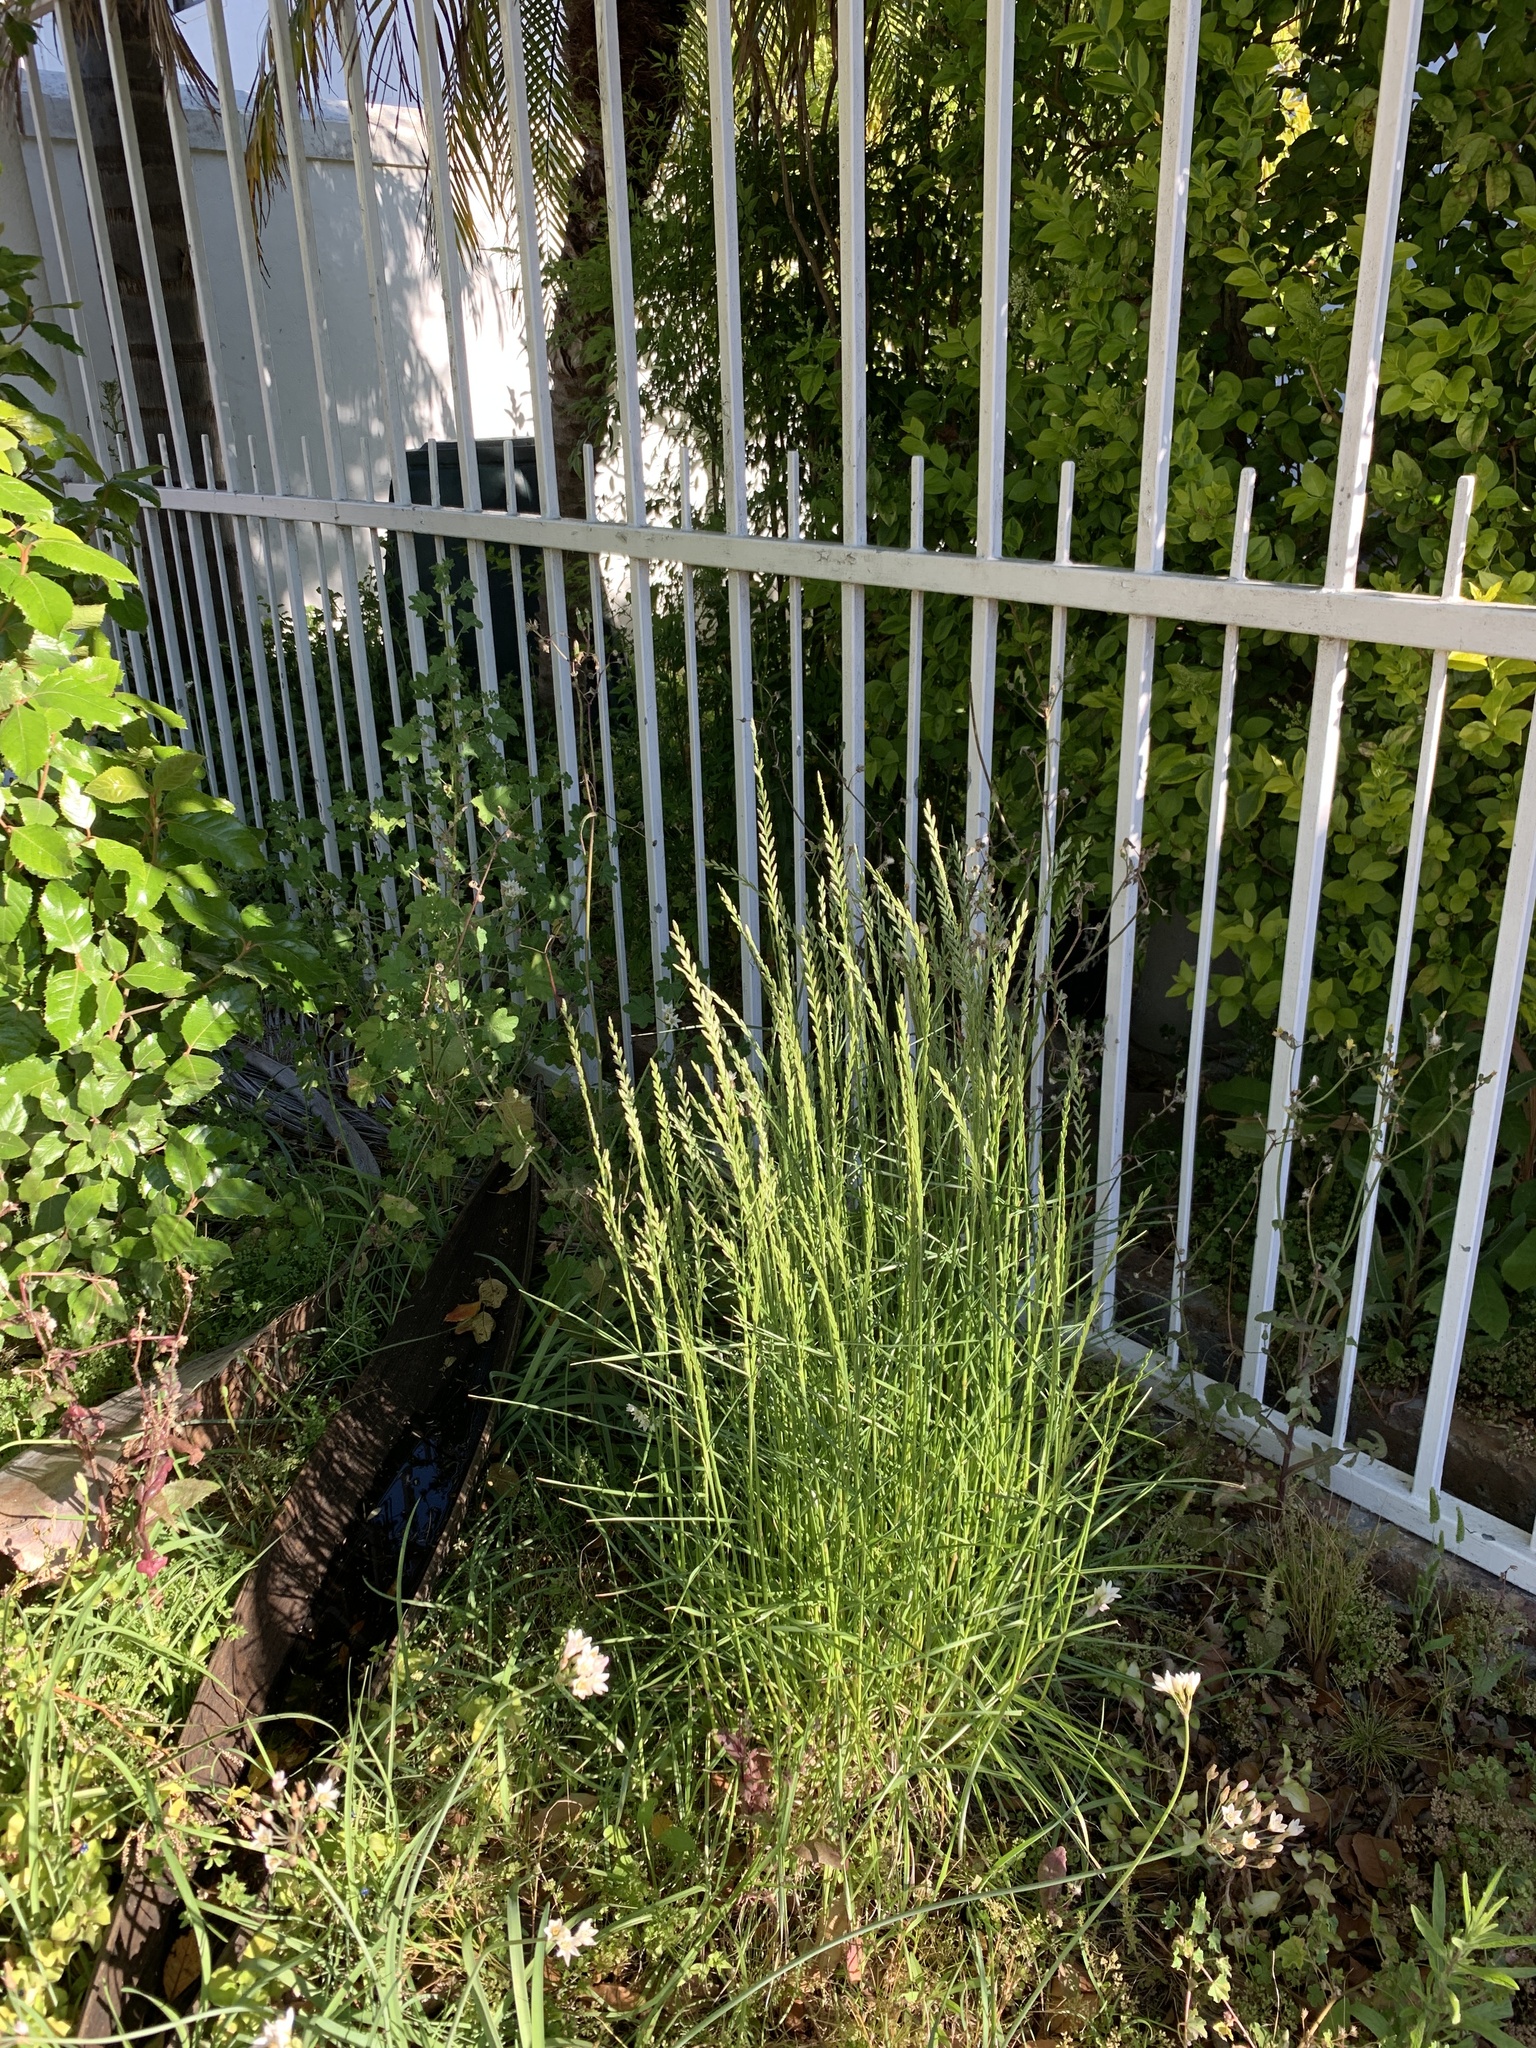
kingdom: Plantae
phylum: Tracheophyta
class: Liliopsida
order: Poales
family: Poaceae
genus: Lolium
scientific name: Lolium perenne
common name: Perennial ryegrass
